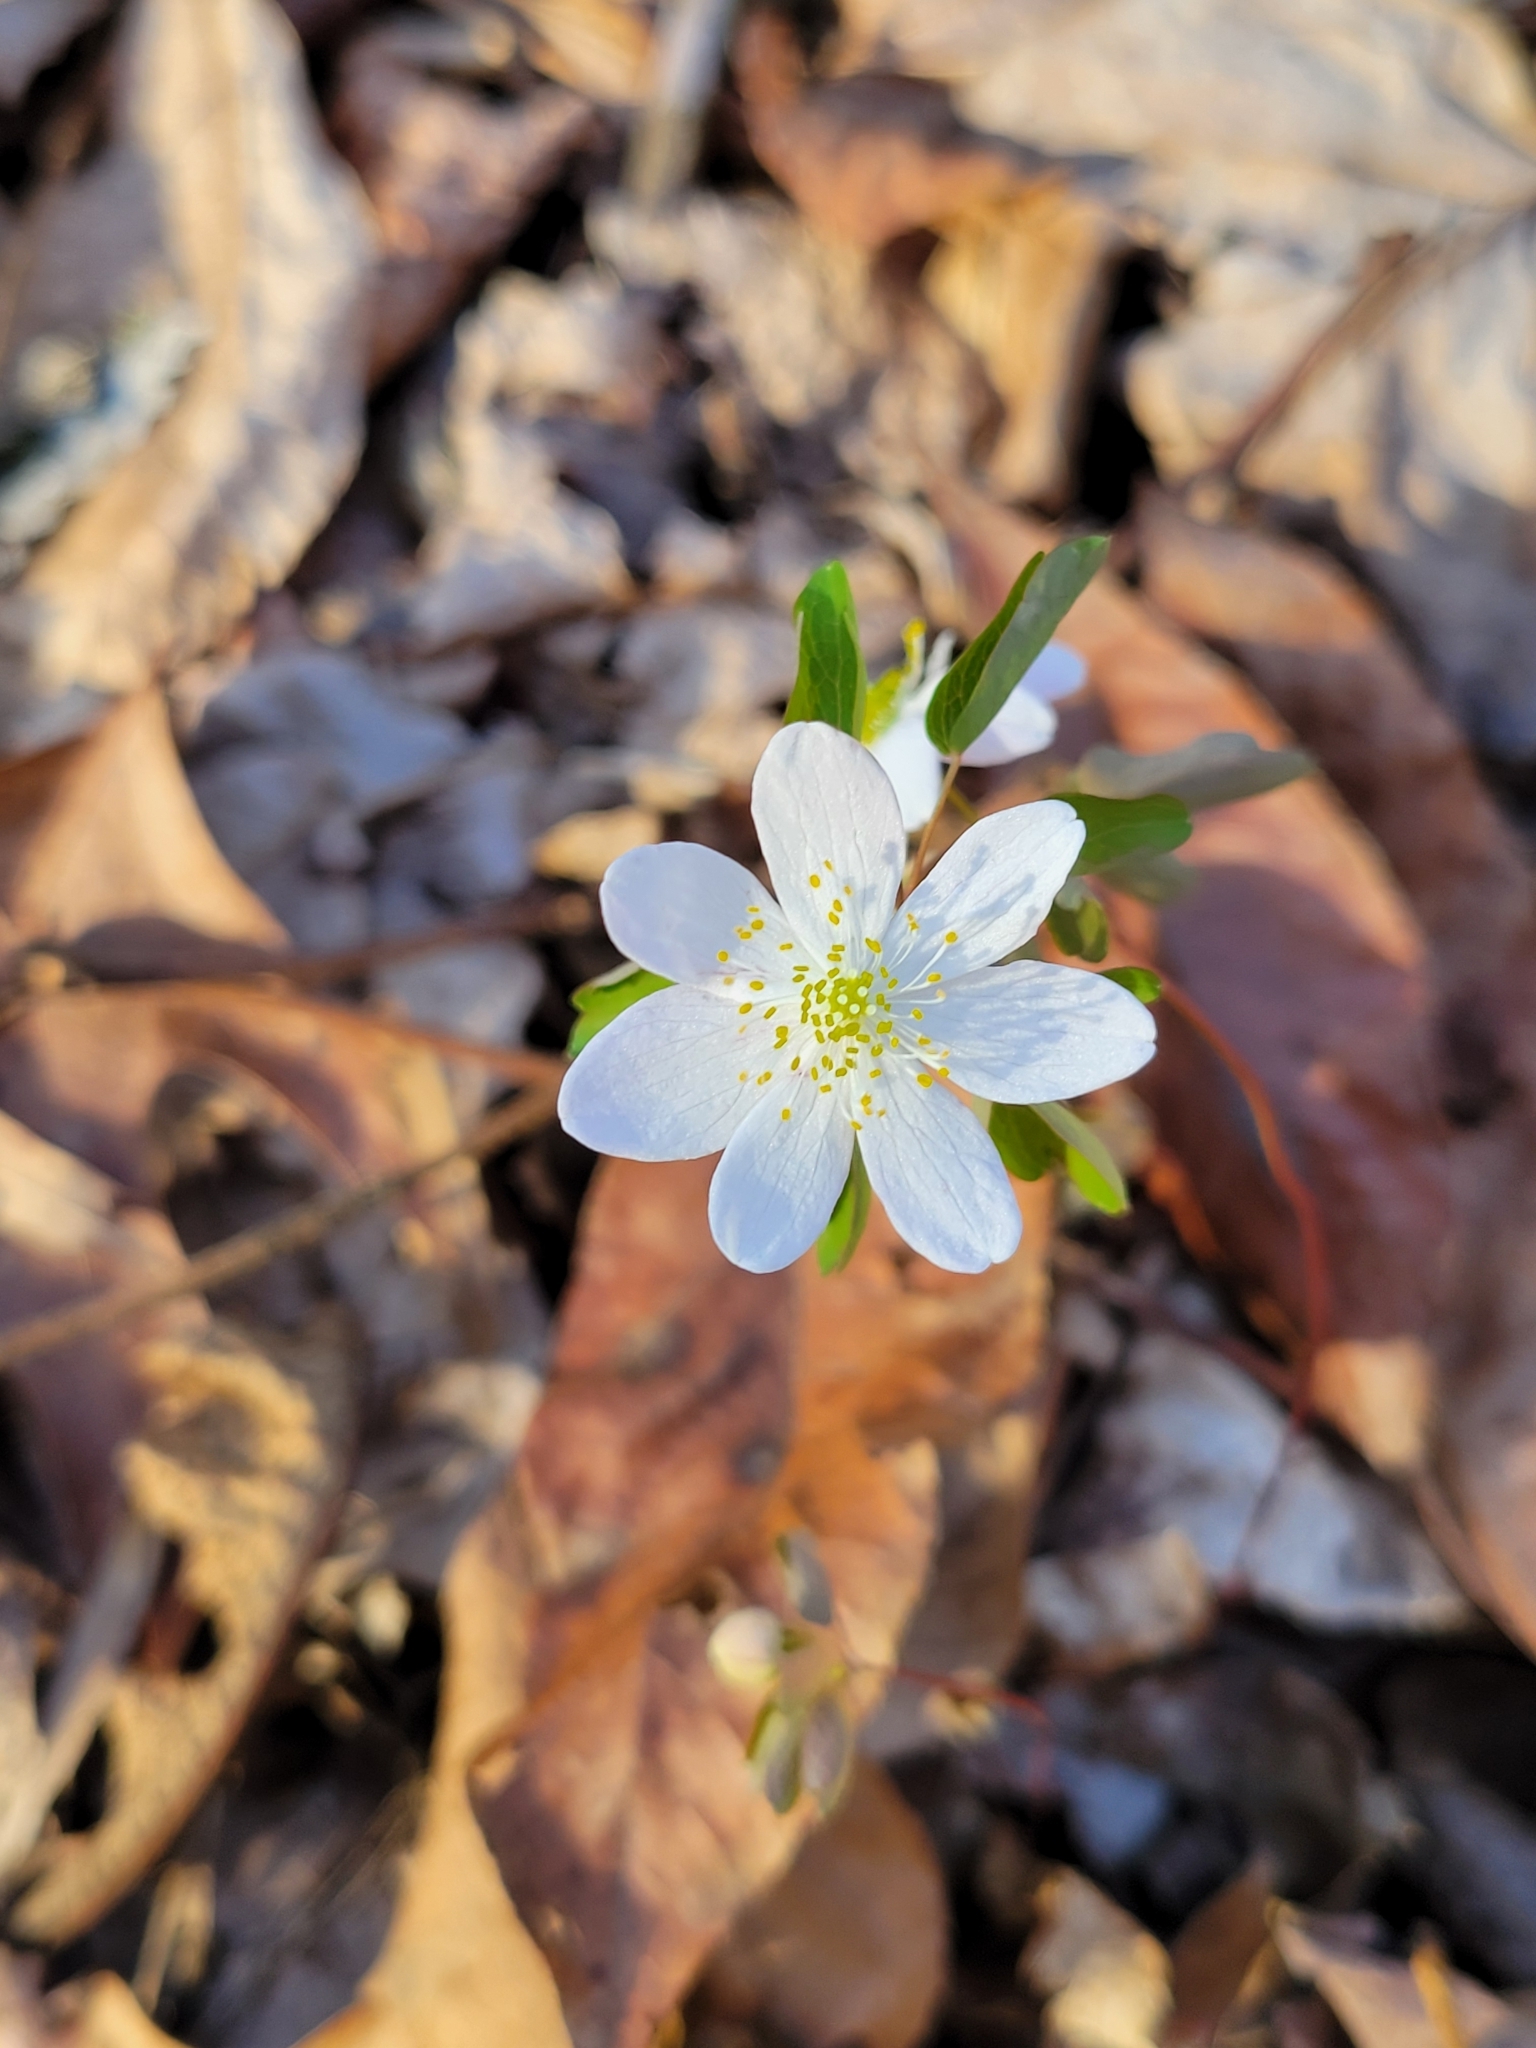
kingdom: Plantae
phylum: Tracheophyta
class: Magnoliopsida
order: Ranunculales
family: Ranunculaceae
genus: Thalictrum
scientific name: Thalictrum thalictroides
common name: Rue-anemone
